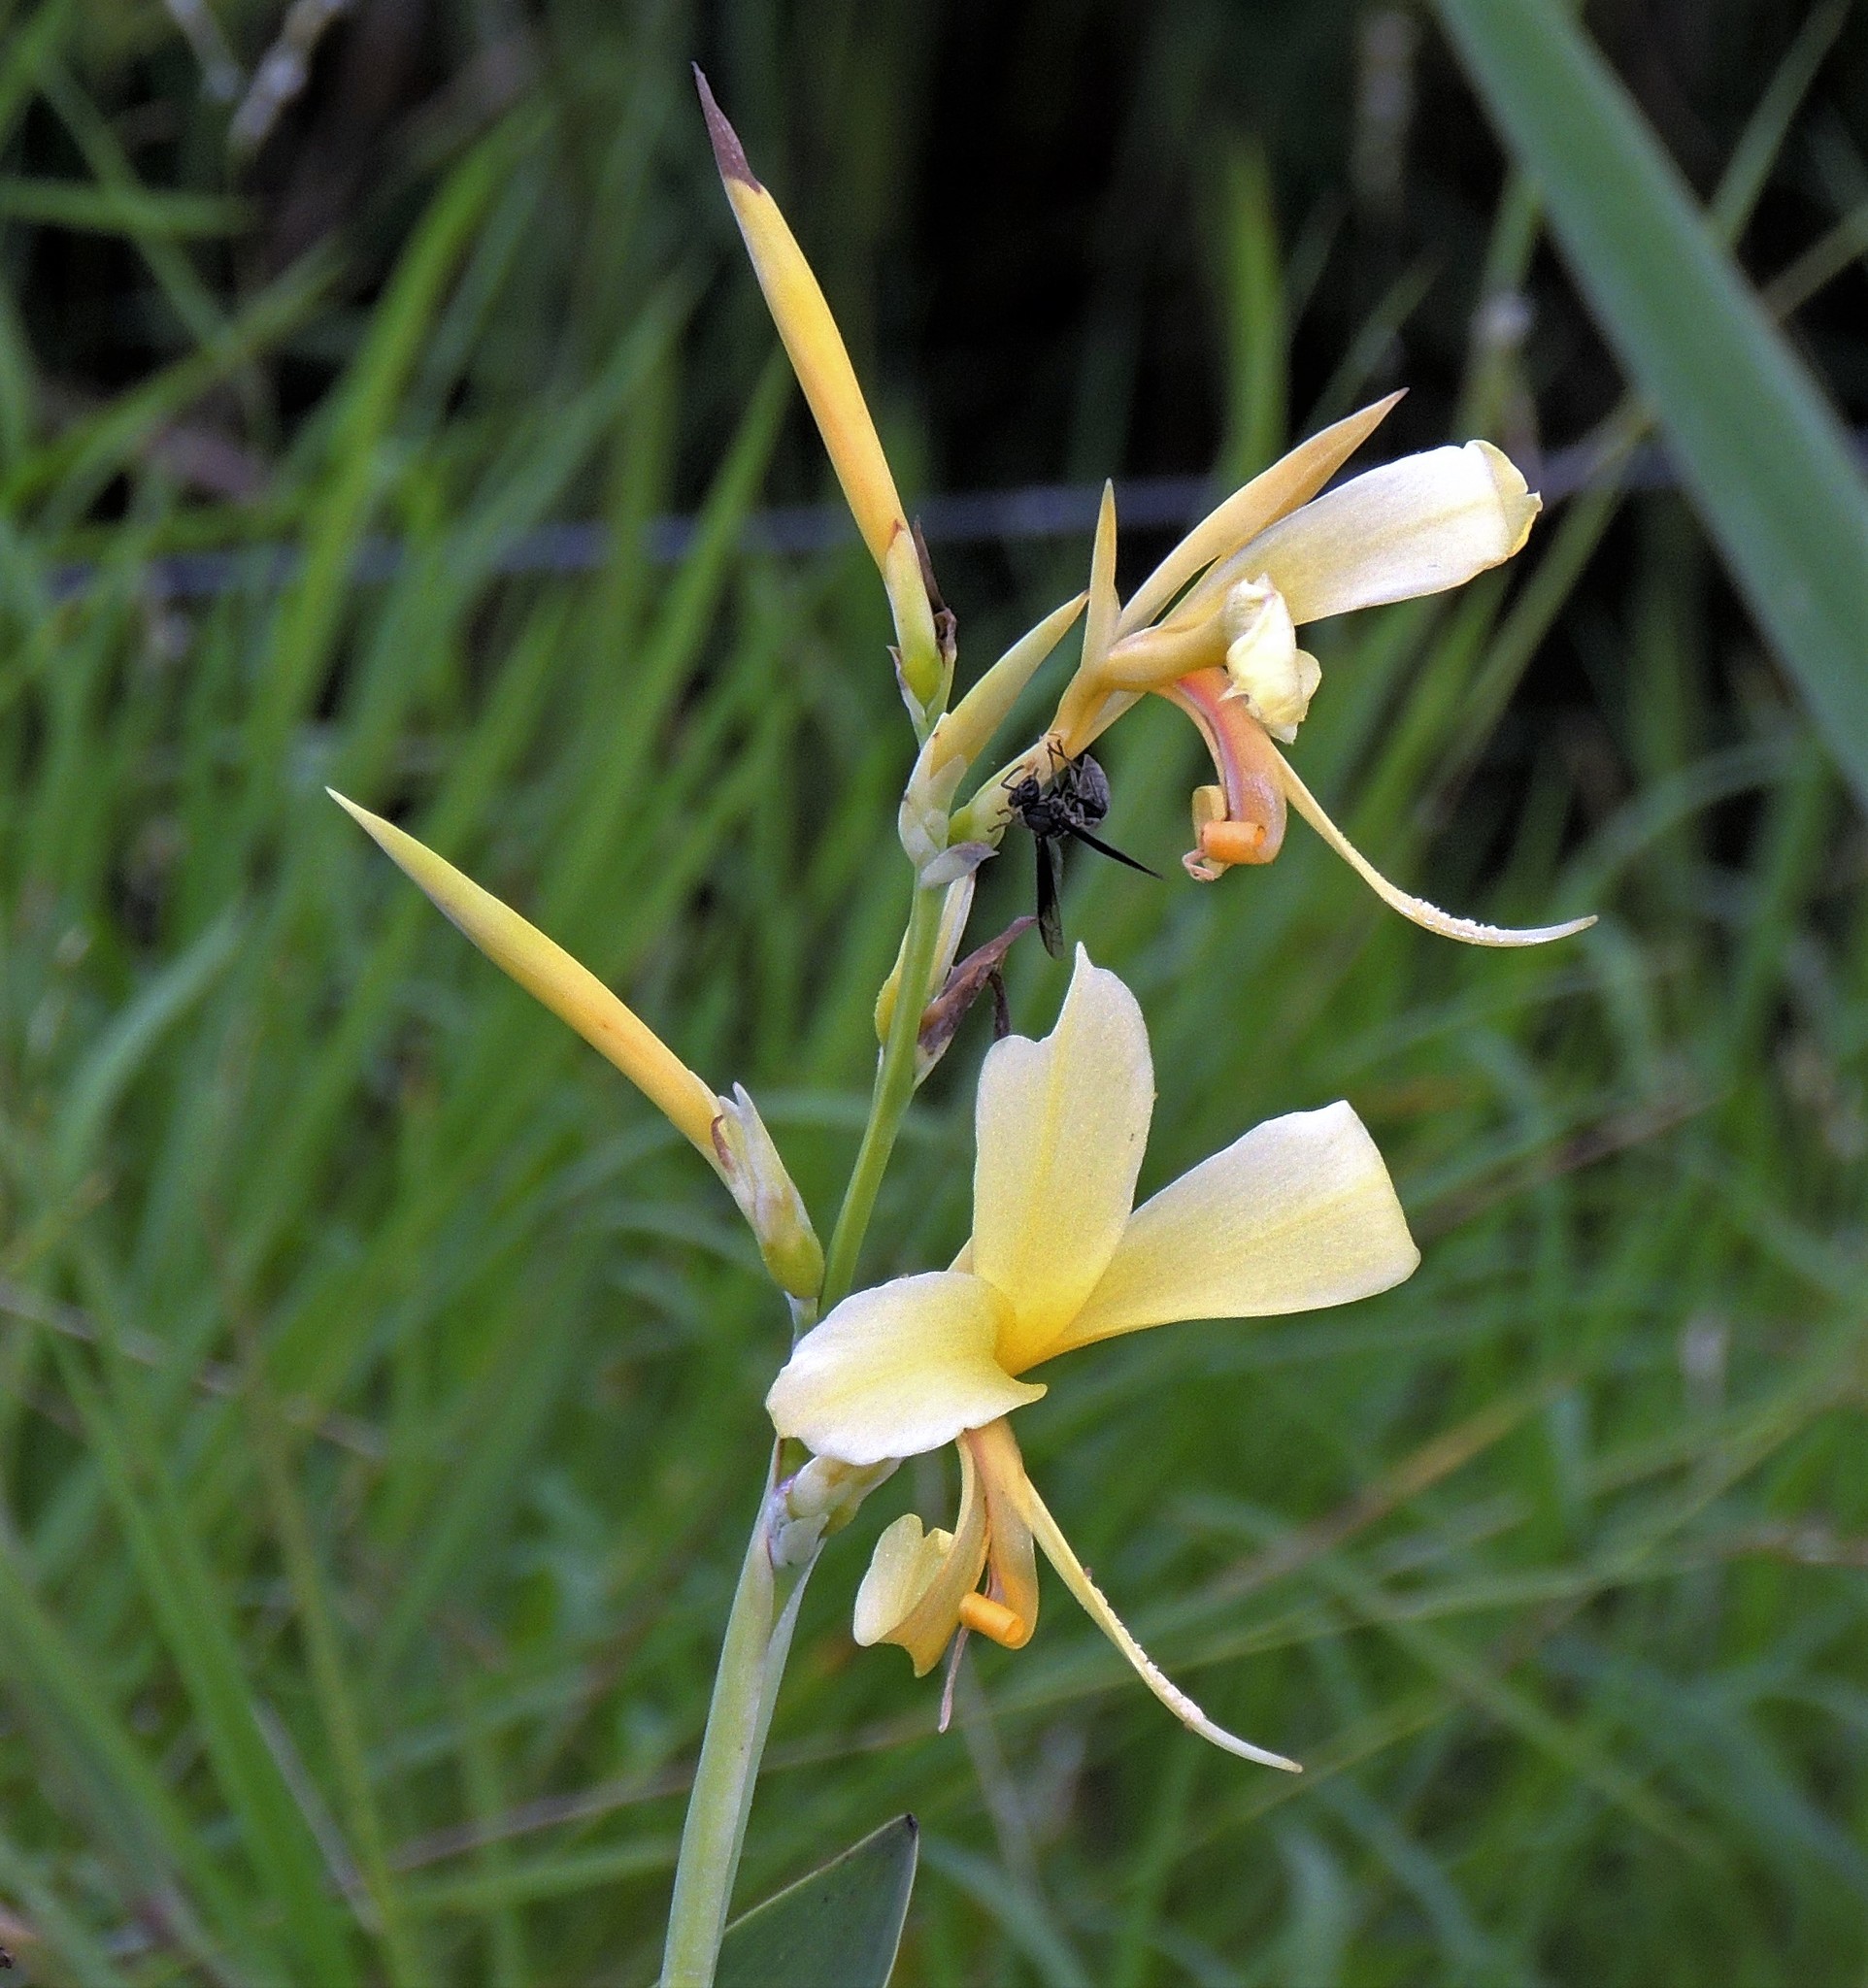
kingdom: Plantae
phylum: Tracheophyta
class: Liliopsida
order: Zingiberales
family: Cannaceae
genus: Canna
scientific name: Canna glauca
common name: Louisiana canna
